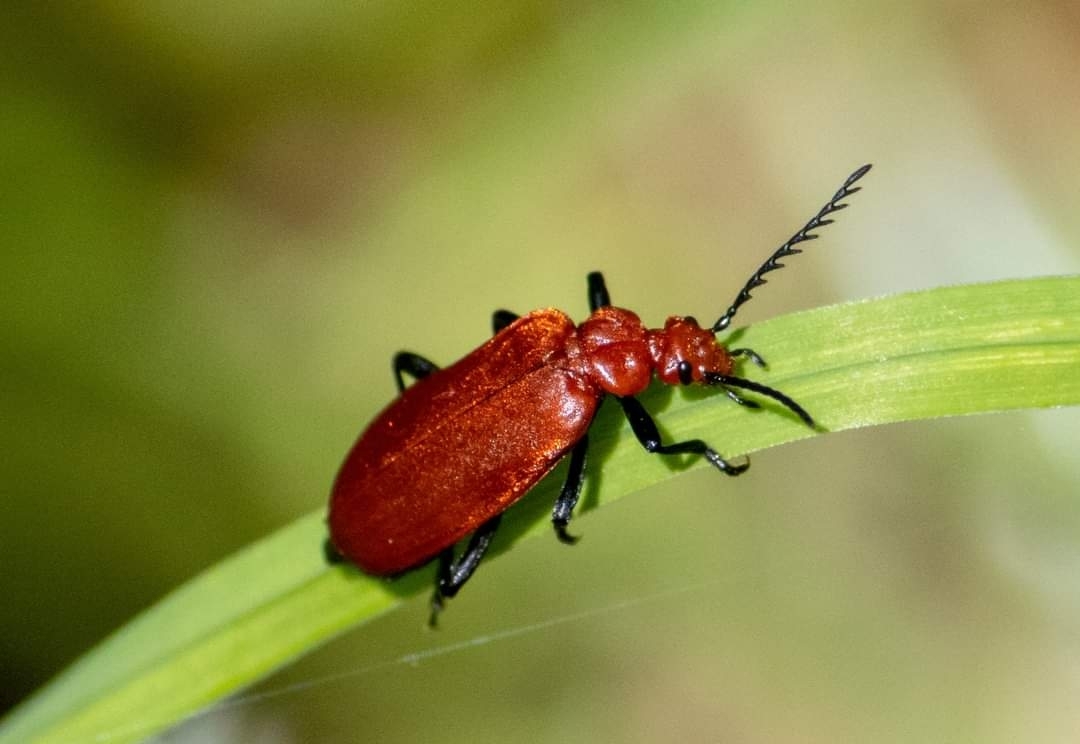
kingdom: Animalia
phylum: Arthropoda
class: Insecta
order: Coleoptera
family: Pyrochroidae
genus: Pyrochroa
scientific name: Pyrochroa serraticornis
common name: Red-headed cardinal beetle
